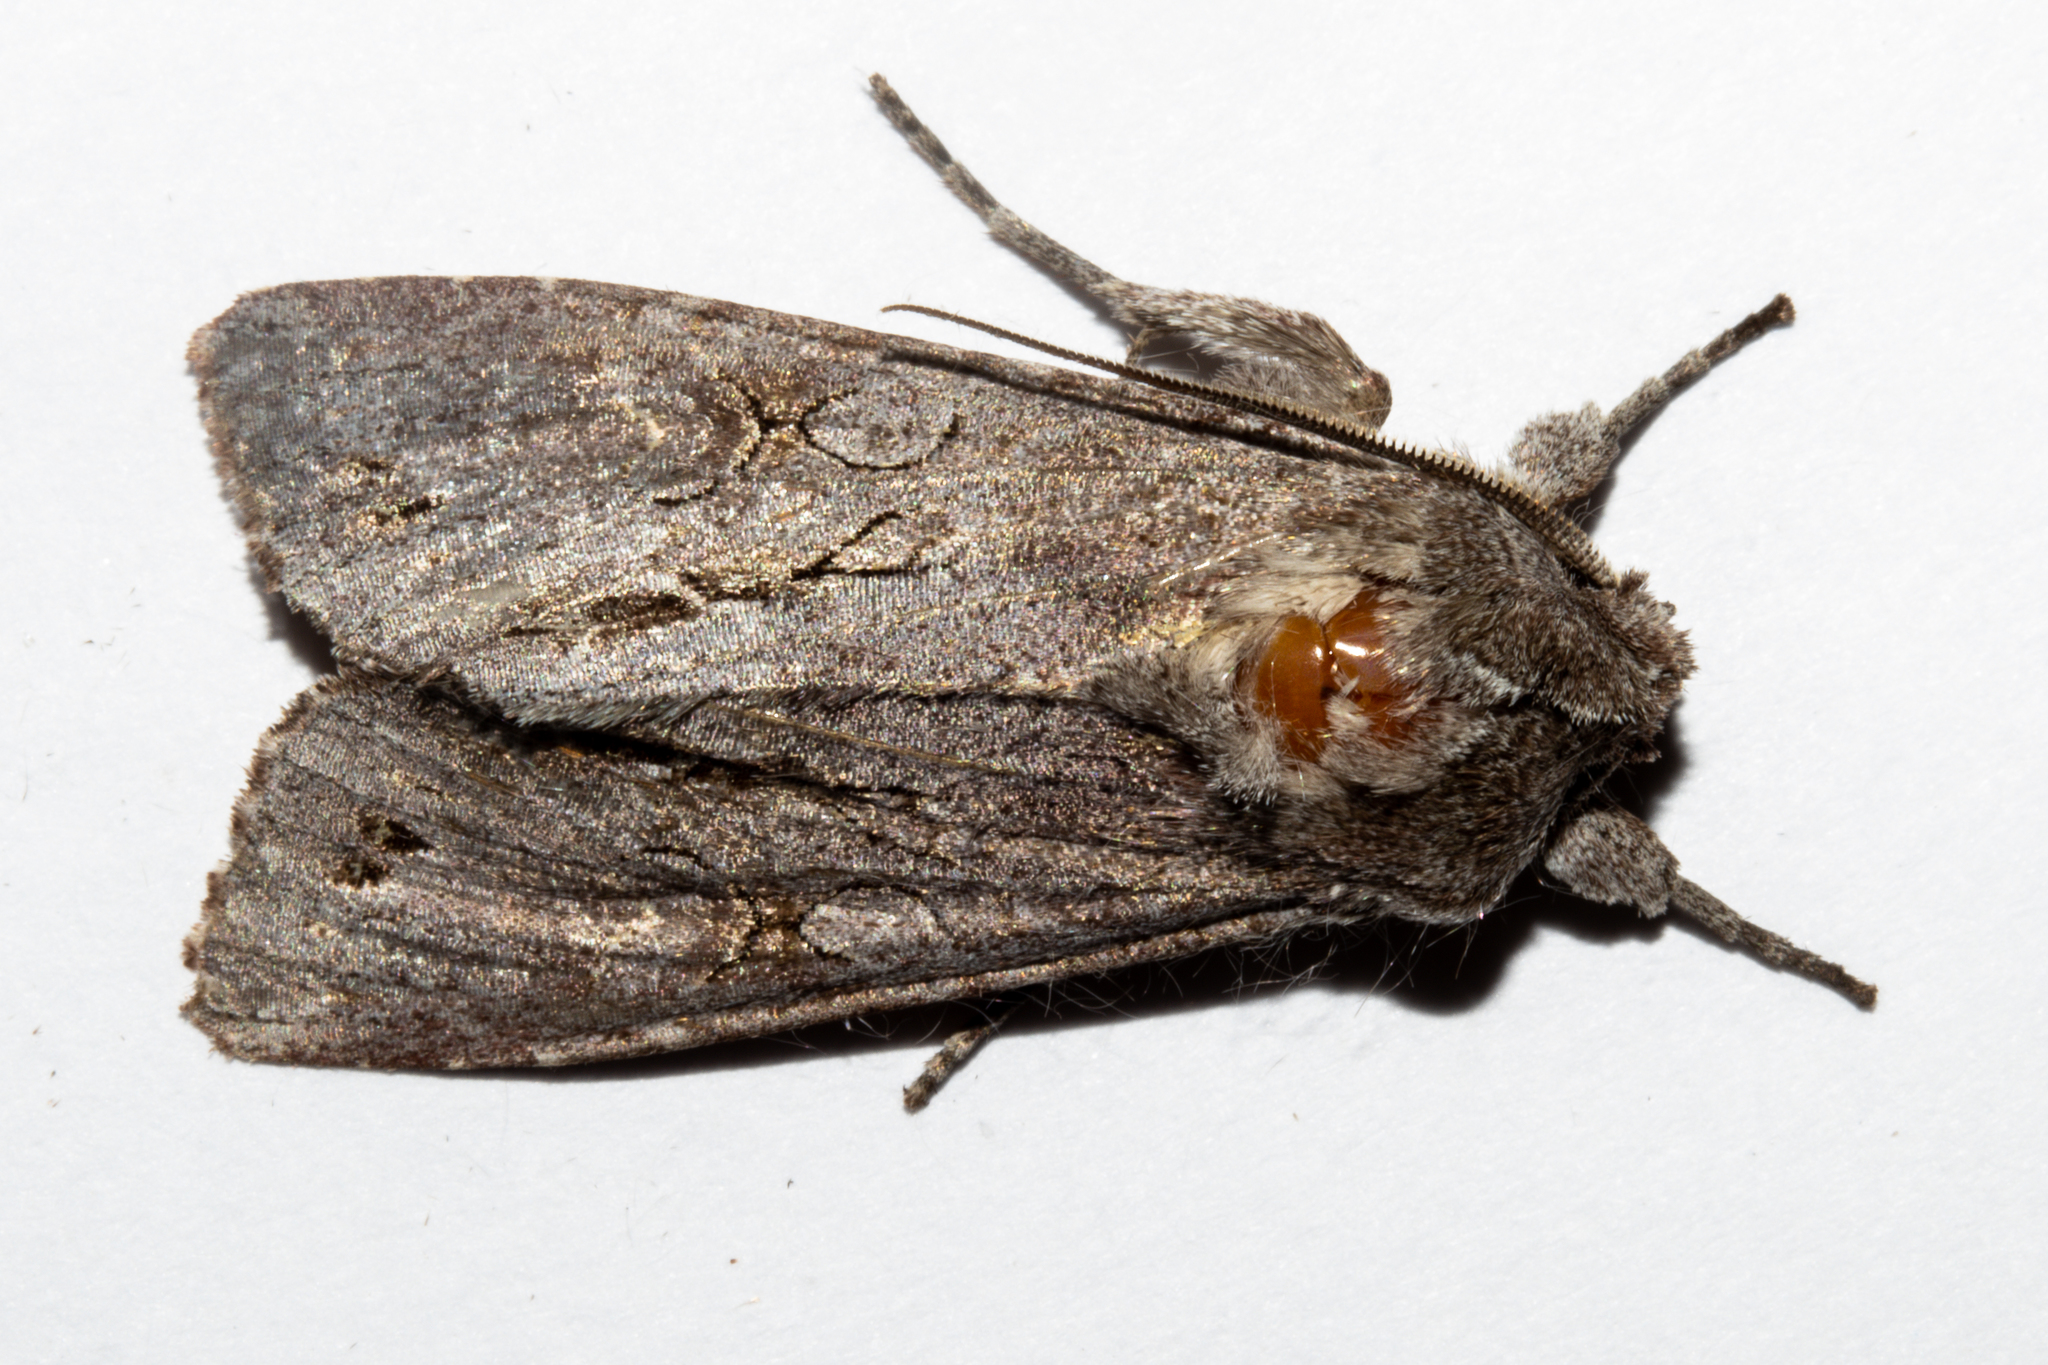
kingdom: Animalia
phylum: Arthropoda
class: Insecta
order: Lepidoptera
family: Noctuidae
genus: Ichneutica
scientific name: Ichneutica
